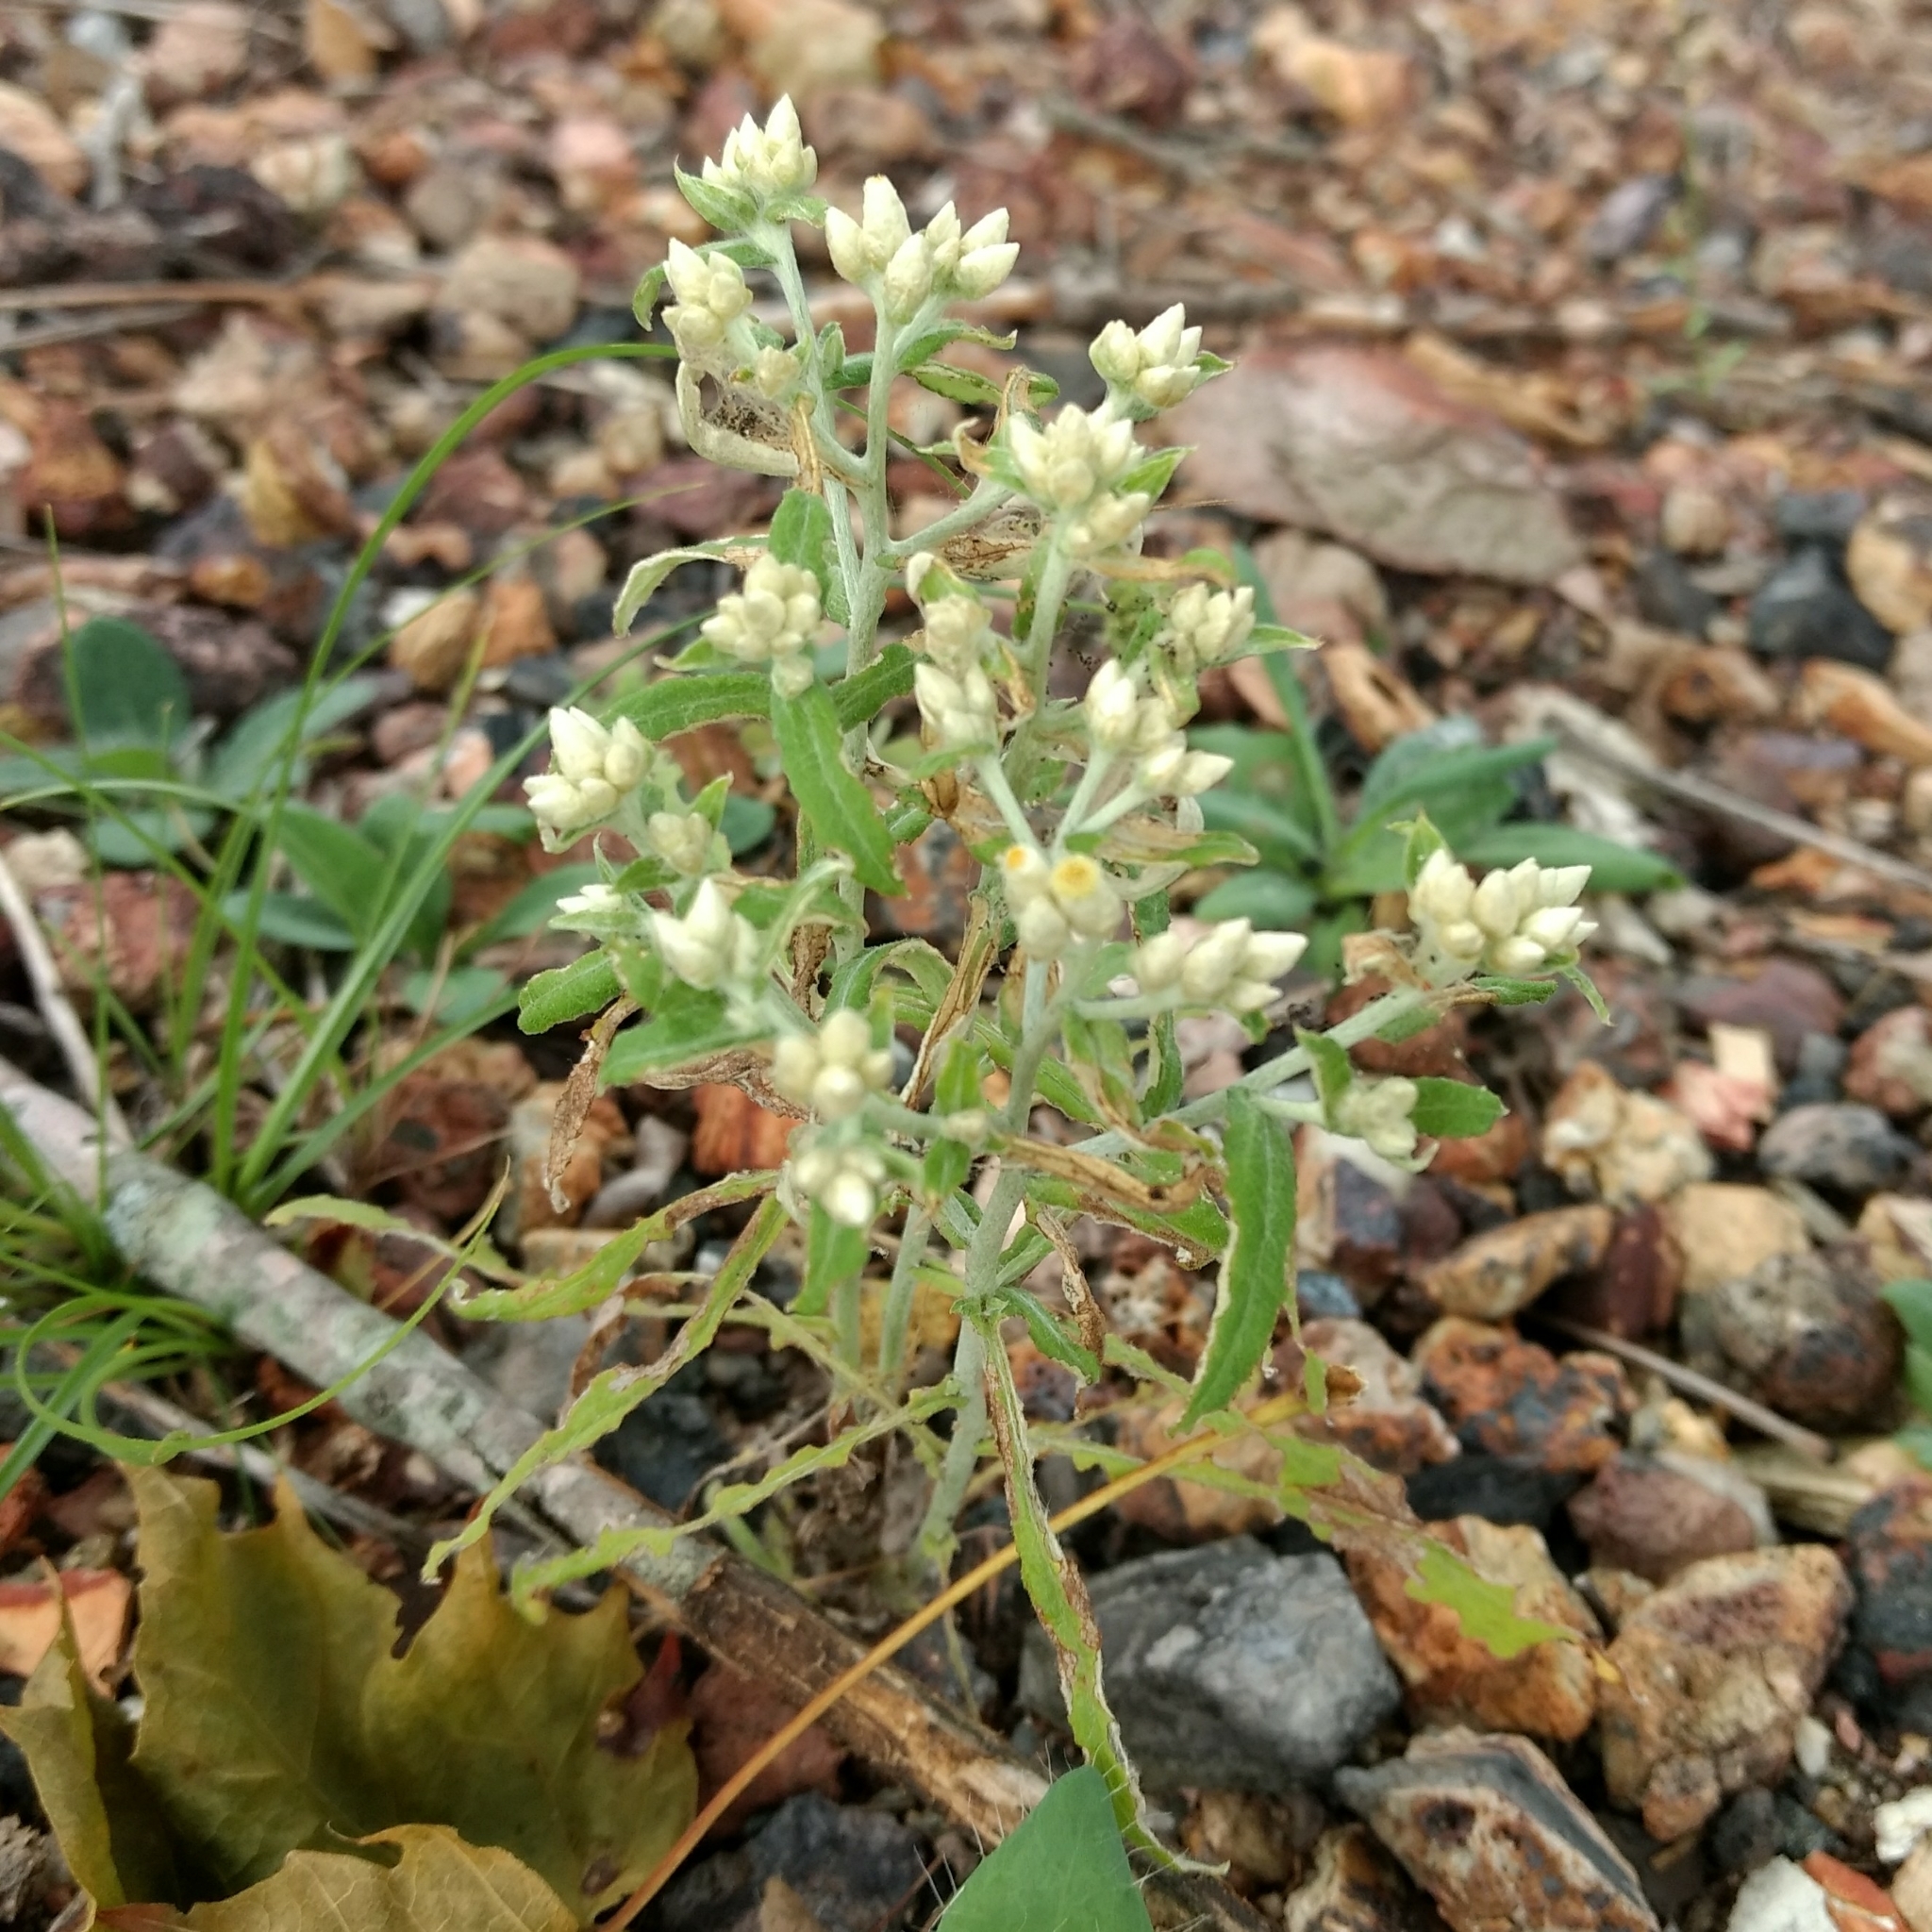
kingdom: Plantae
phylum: Tracheophyta
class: Magnoliopsida
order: Asterales
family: Asteraceae
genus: Pseudognaphalium
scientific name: Pseudognaphalium obtusifolium
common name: Eastern rabbit-tobacco
